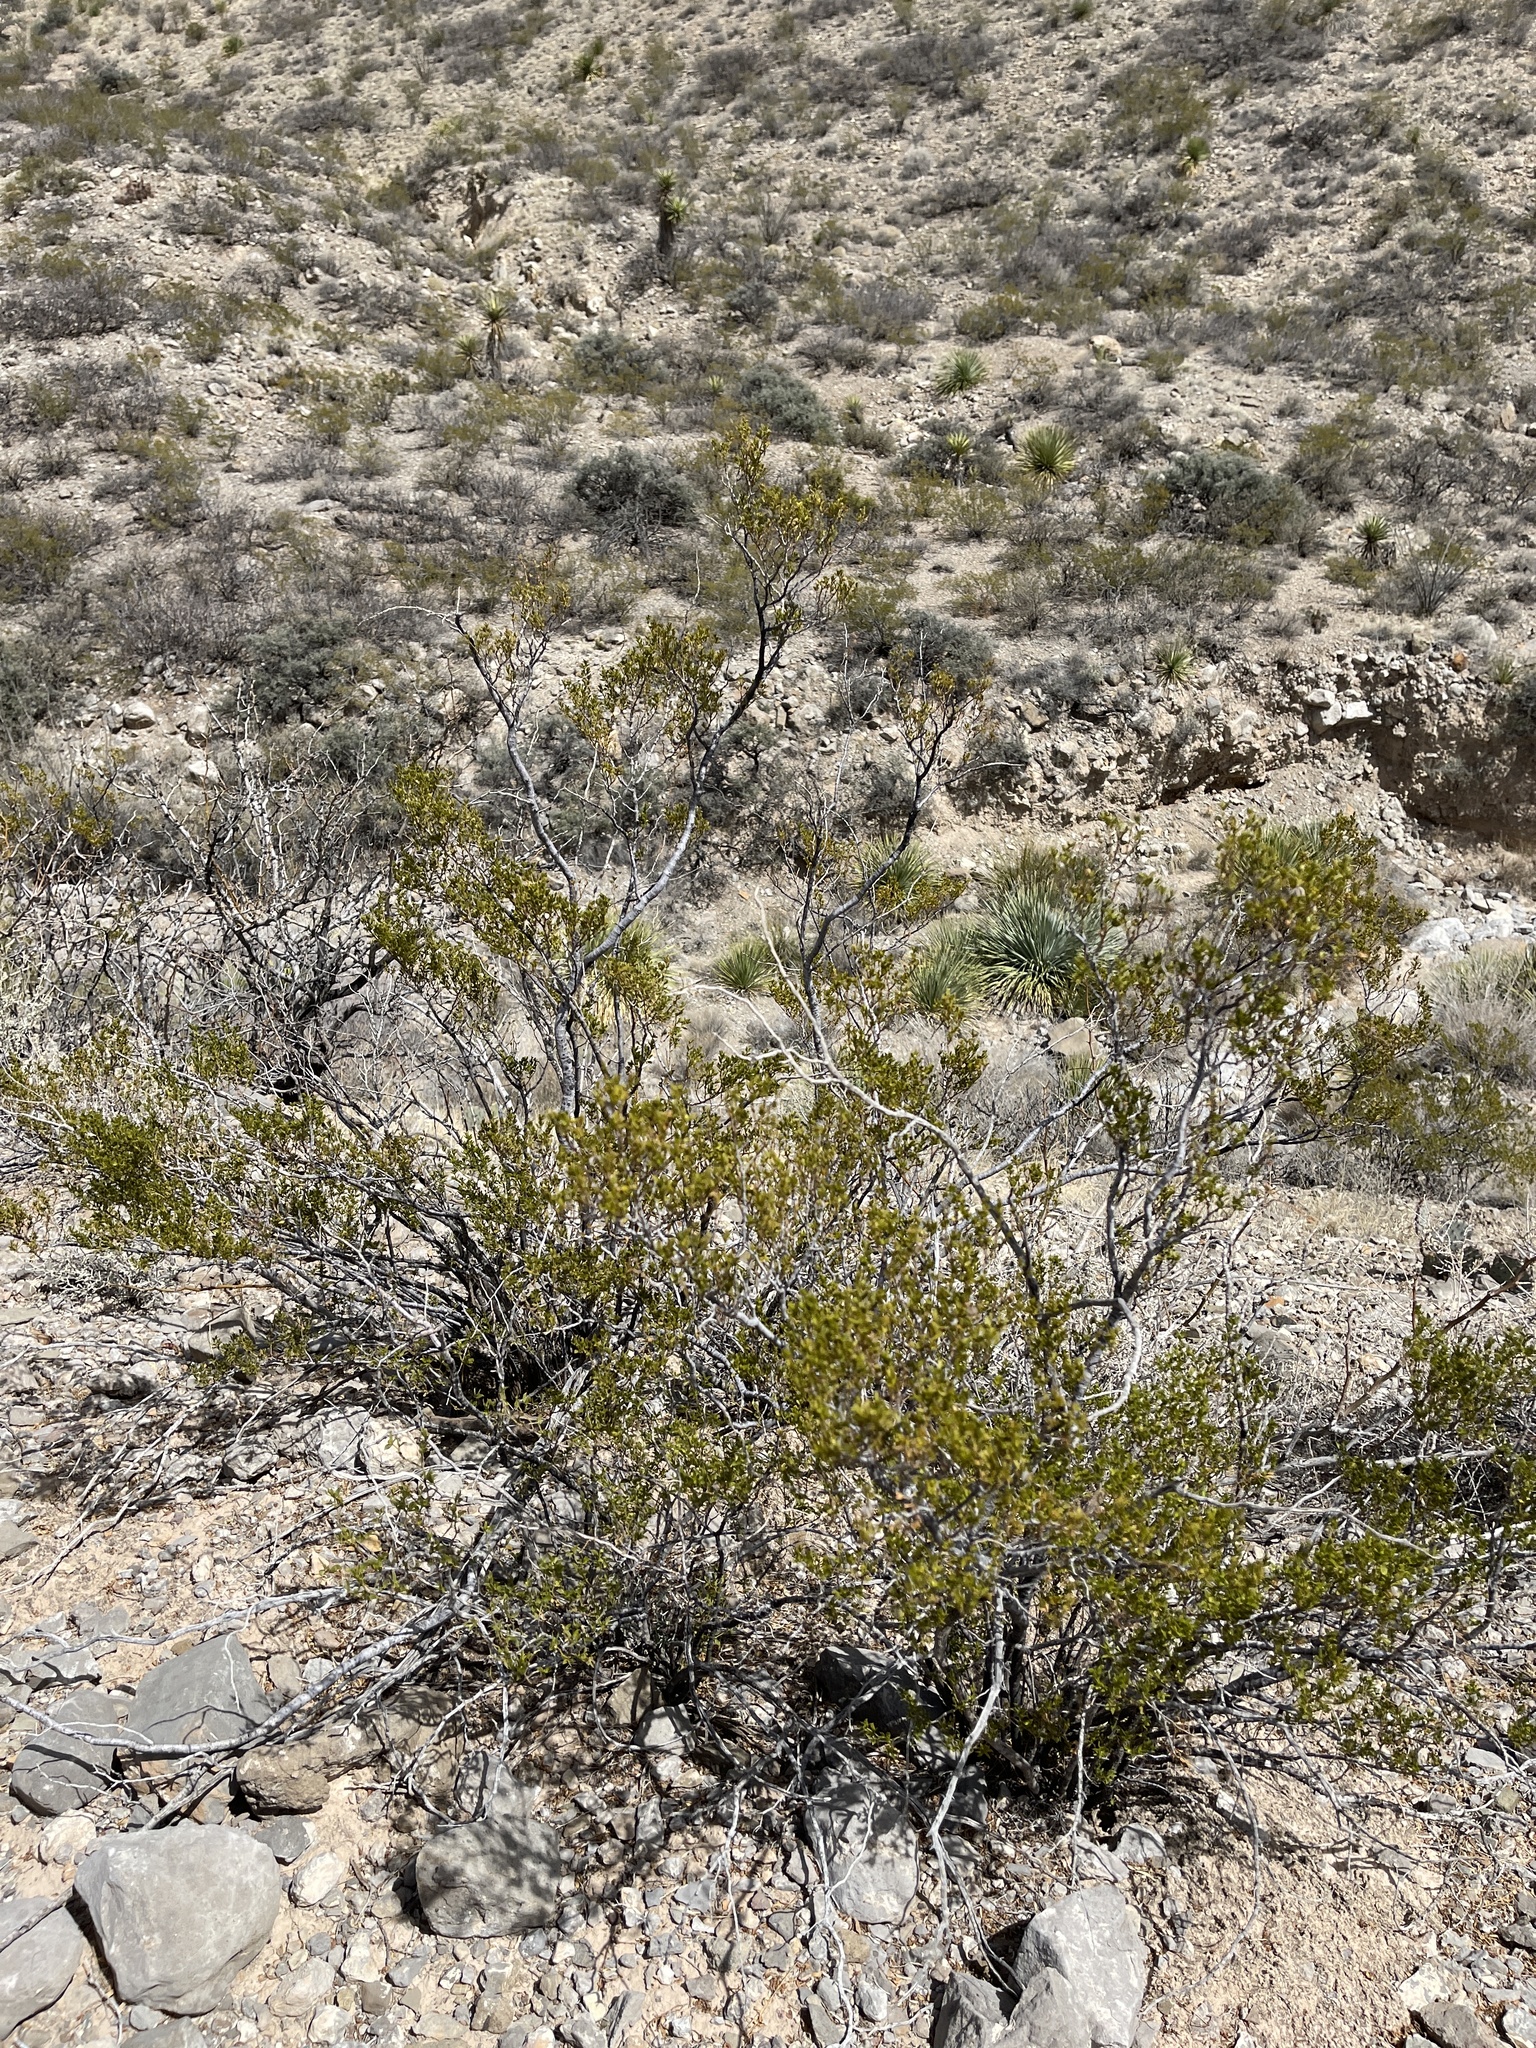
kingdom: Plantae
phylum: Tracheophyta
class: Magnoliopsida
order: Zygophyllales
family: Zygophyllaceae
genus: Larrea
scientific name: Larrea tridentata
